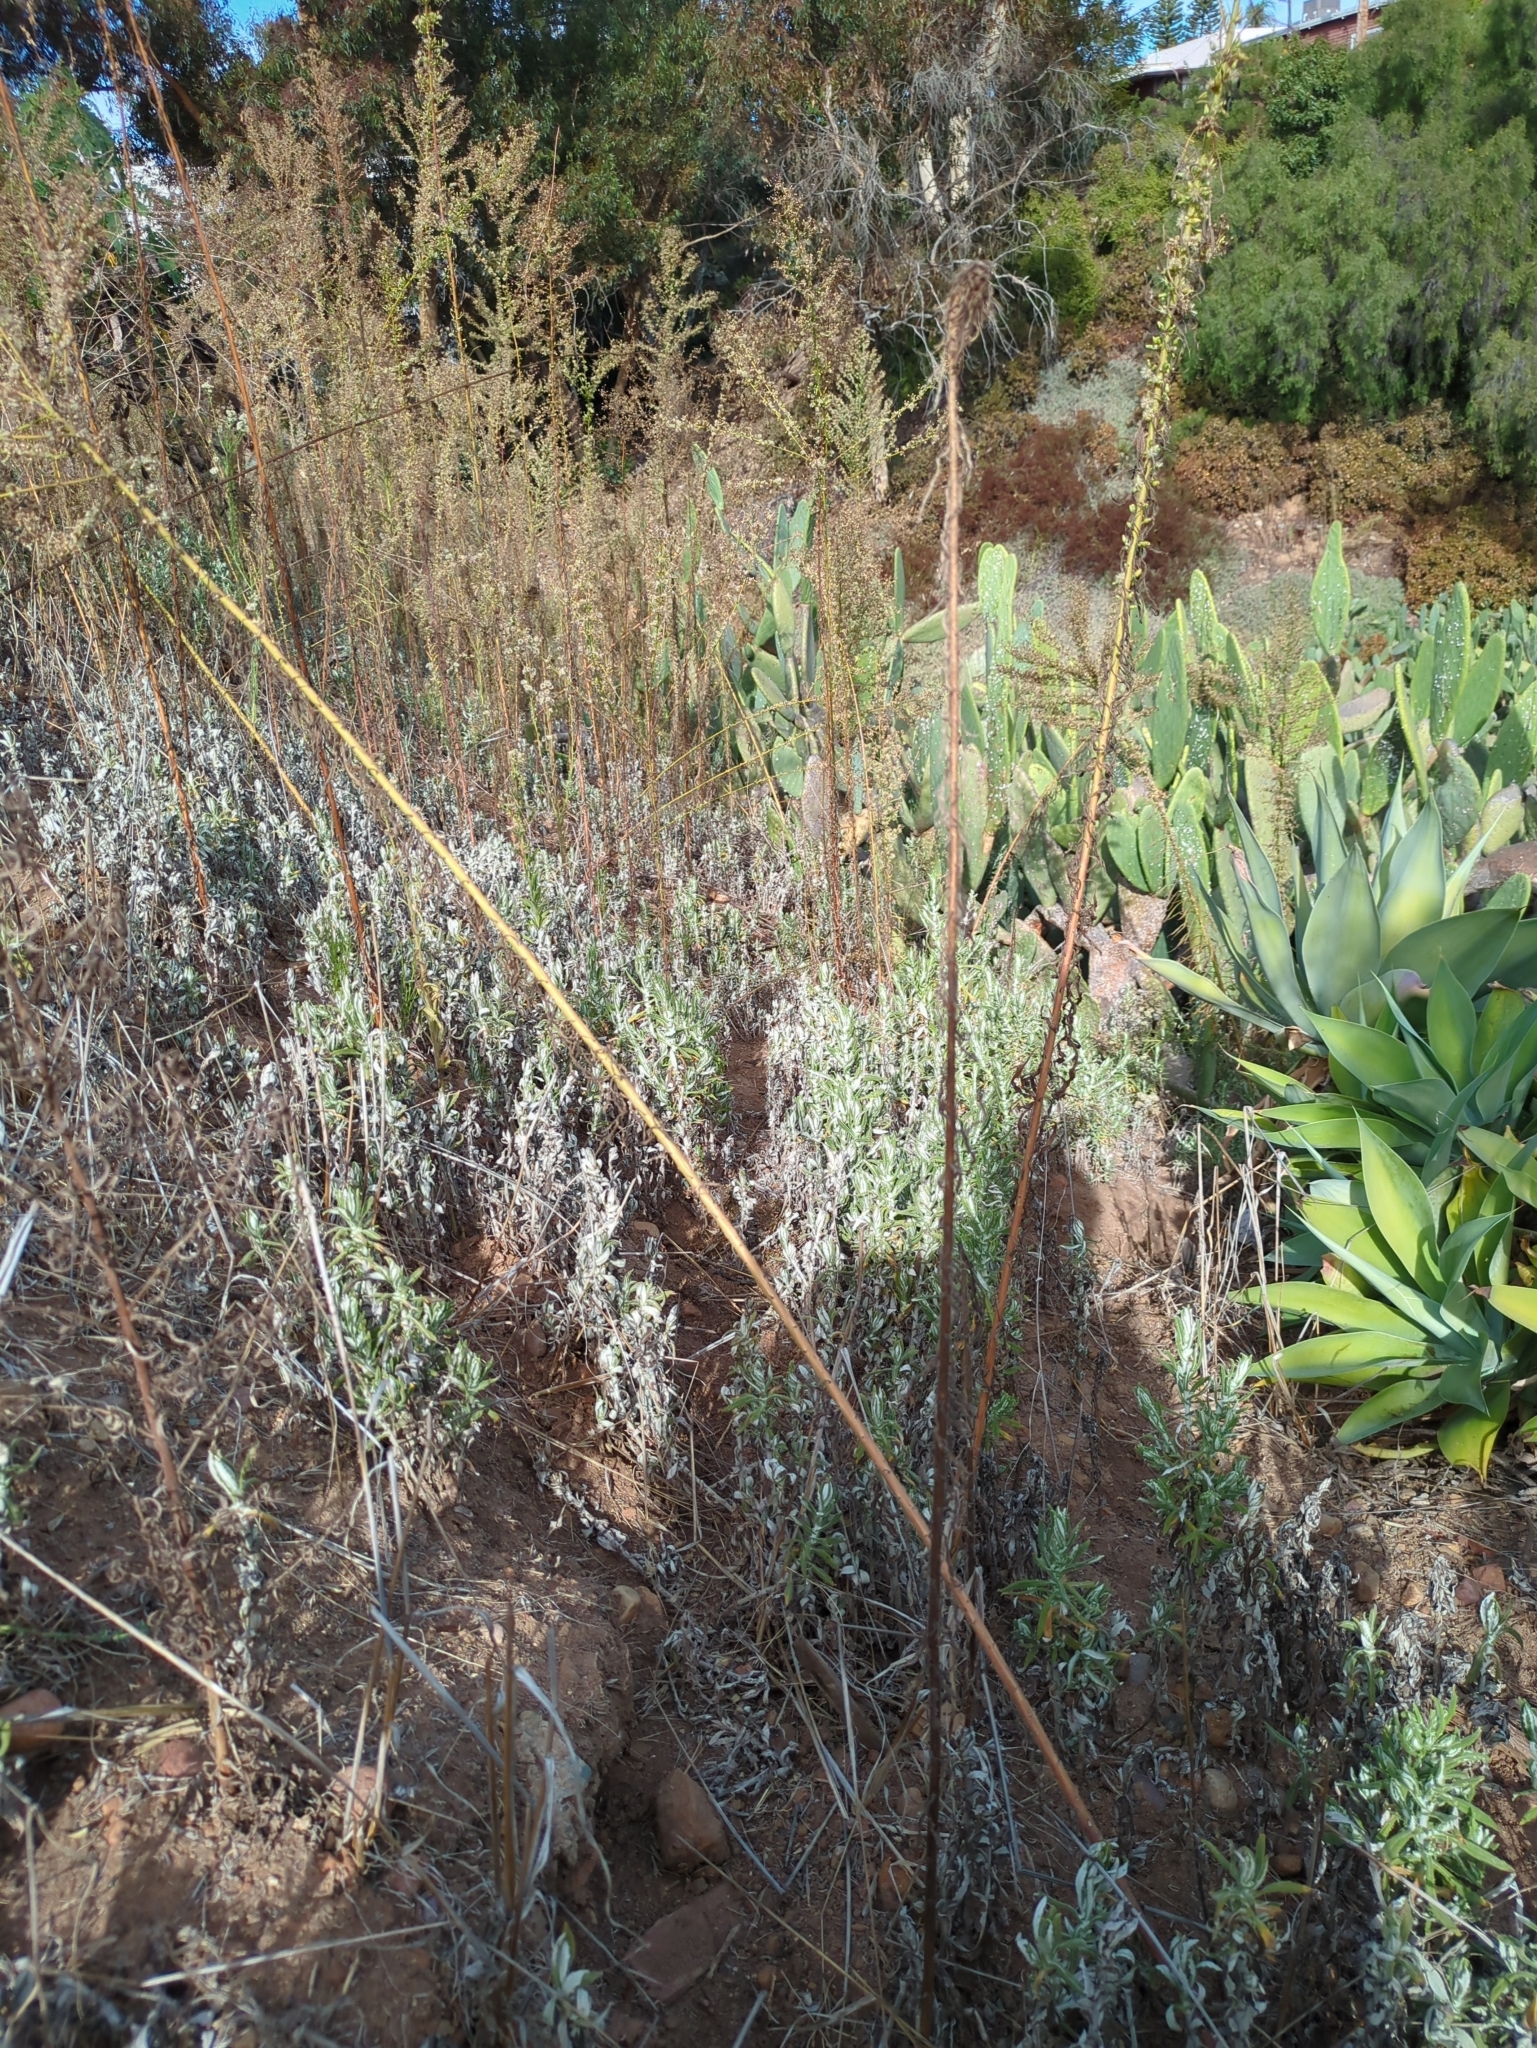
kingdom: Plantae
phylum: Tracheophyta
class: Magnoliopsida
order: Asterales
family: Asteraceae
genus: Pseudognaphalium
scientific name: Pseudognaphalium biolettii
